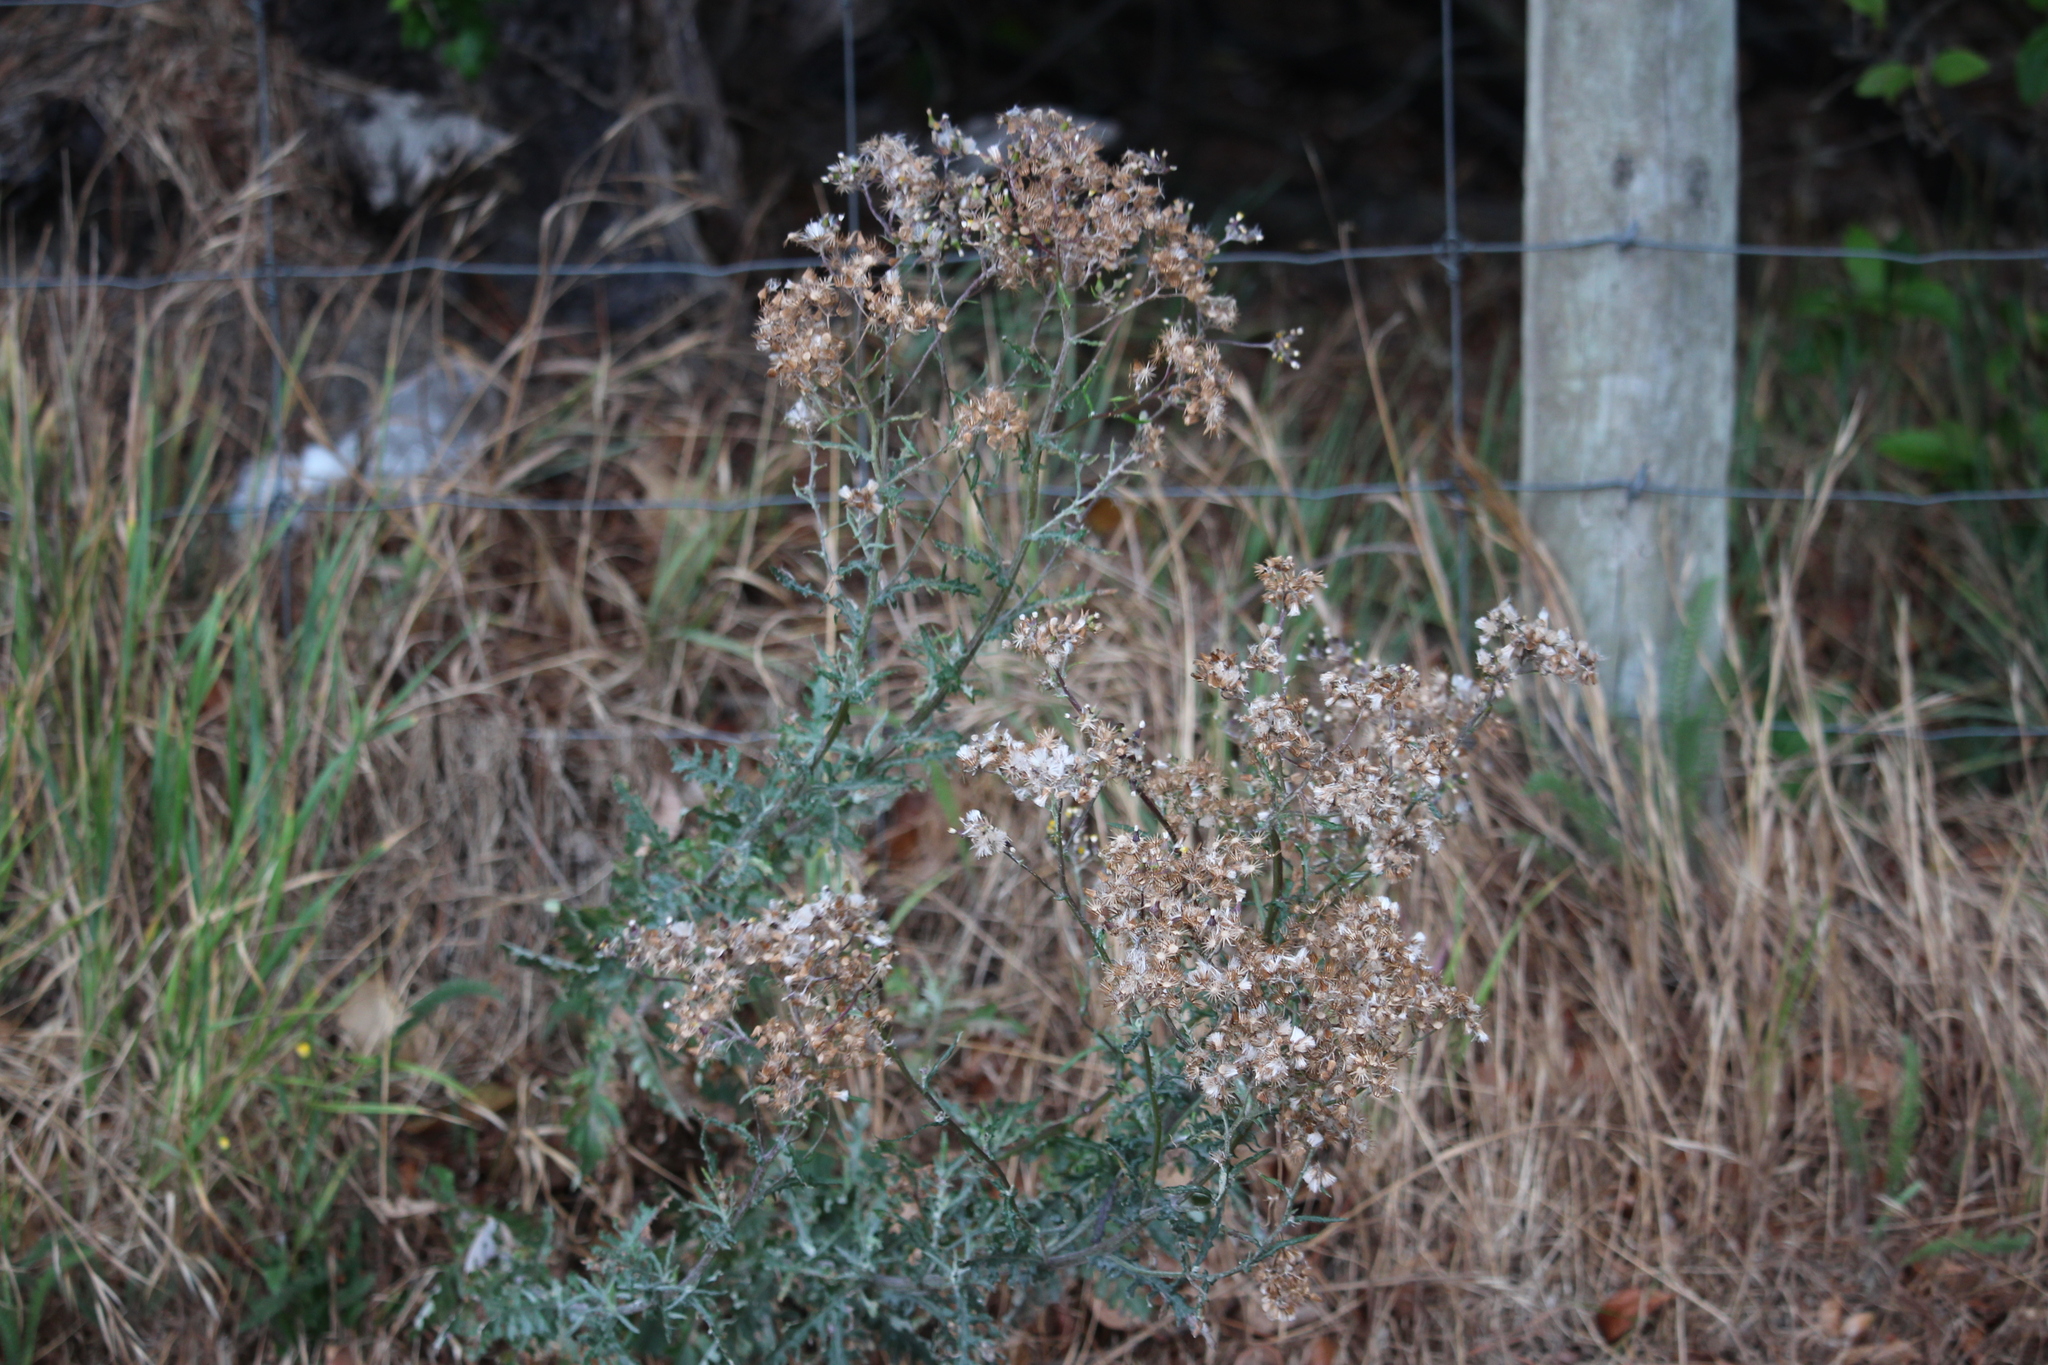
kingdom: Plantae
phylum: Tracheophyta
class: Magnoliopsida
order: Asterales
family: Asteraceae
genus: Senecio
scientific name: Senecio glomeratus
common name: Cutleaf burnweed
